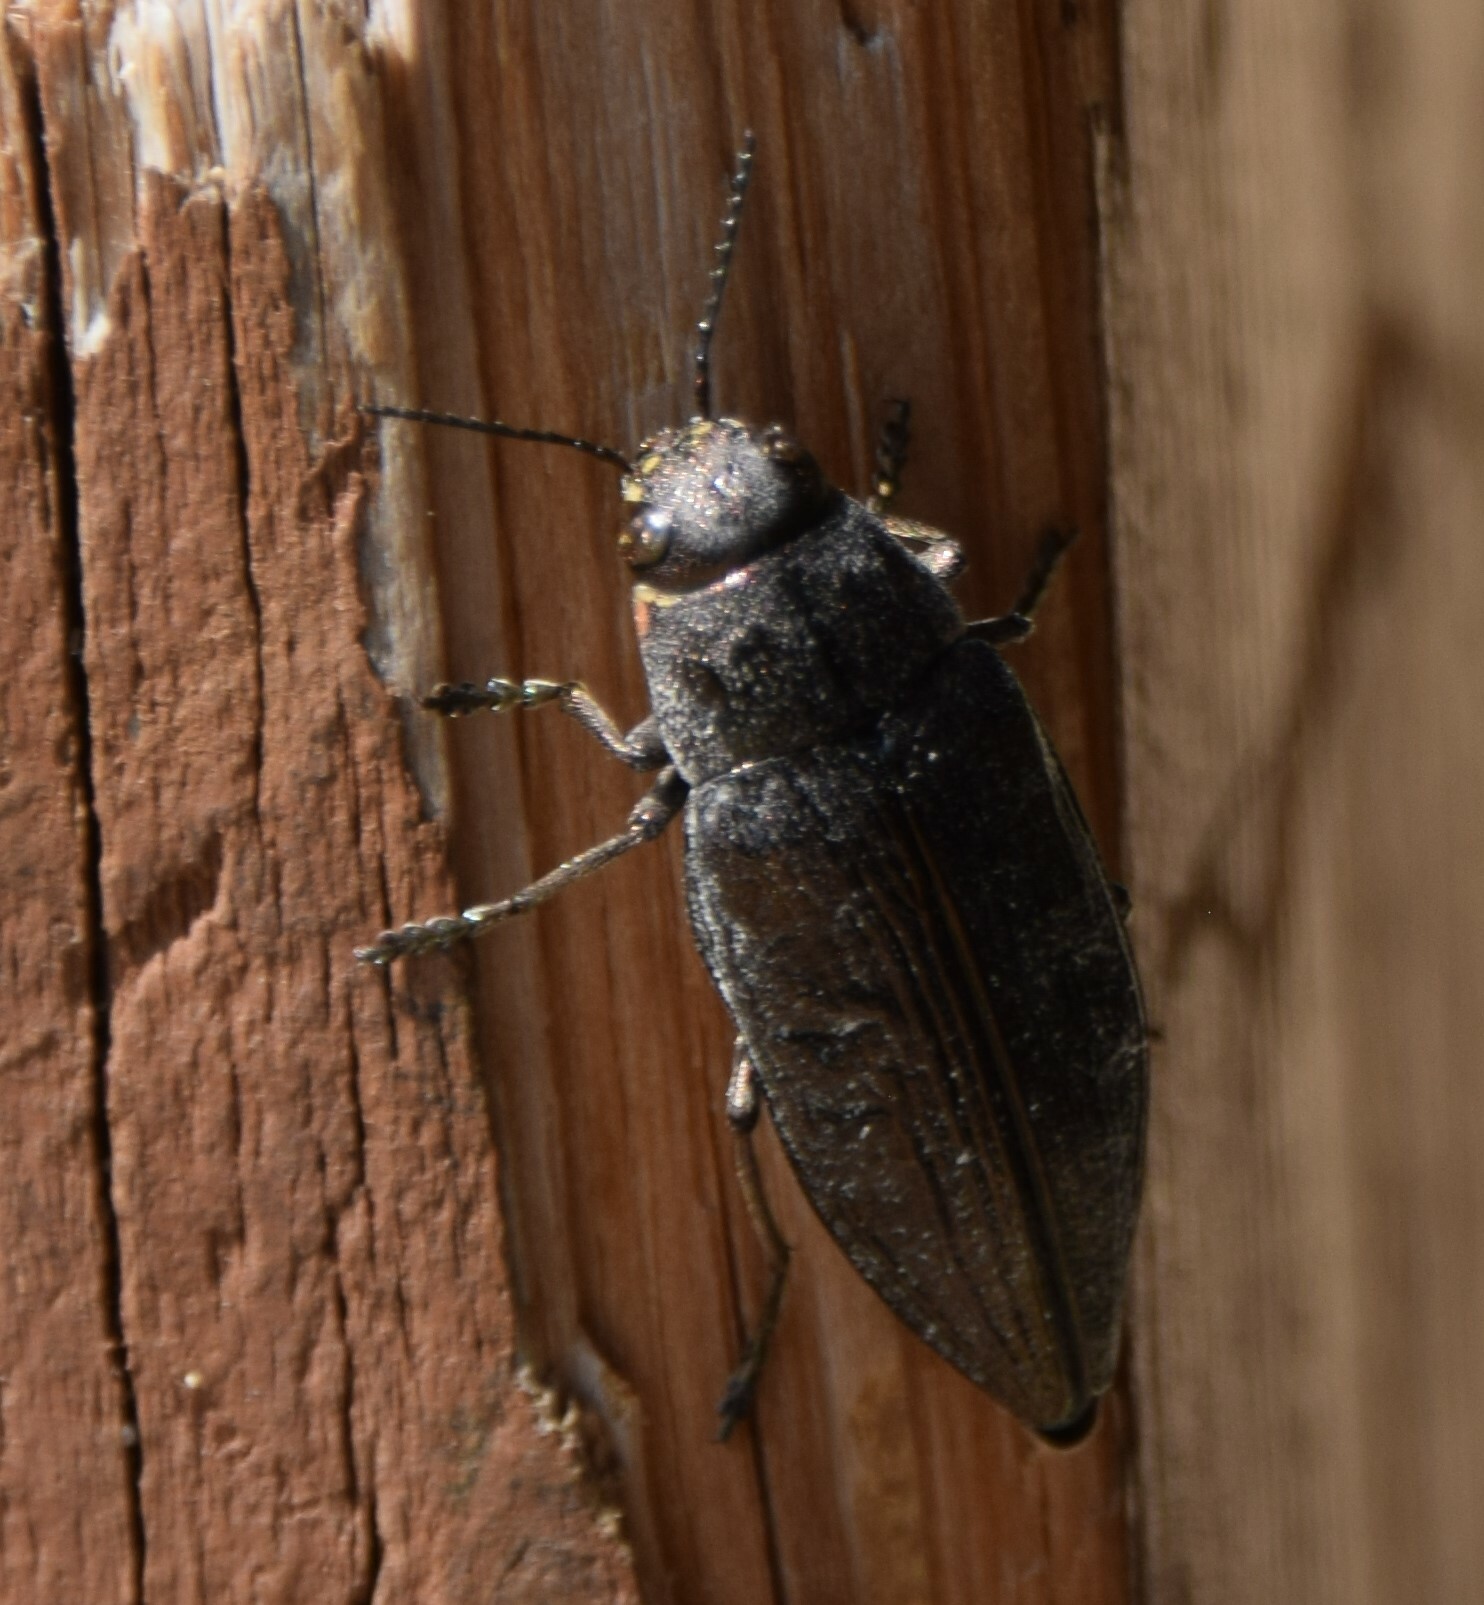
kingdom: Animalia
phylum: Arthropoda
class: Insecta
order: Coleoptera
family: Buprestidae
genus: Buprestis
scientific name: Buprestis maculativentris
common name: Spotted-belly buprestid beetle
